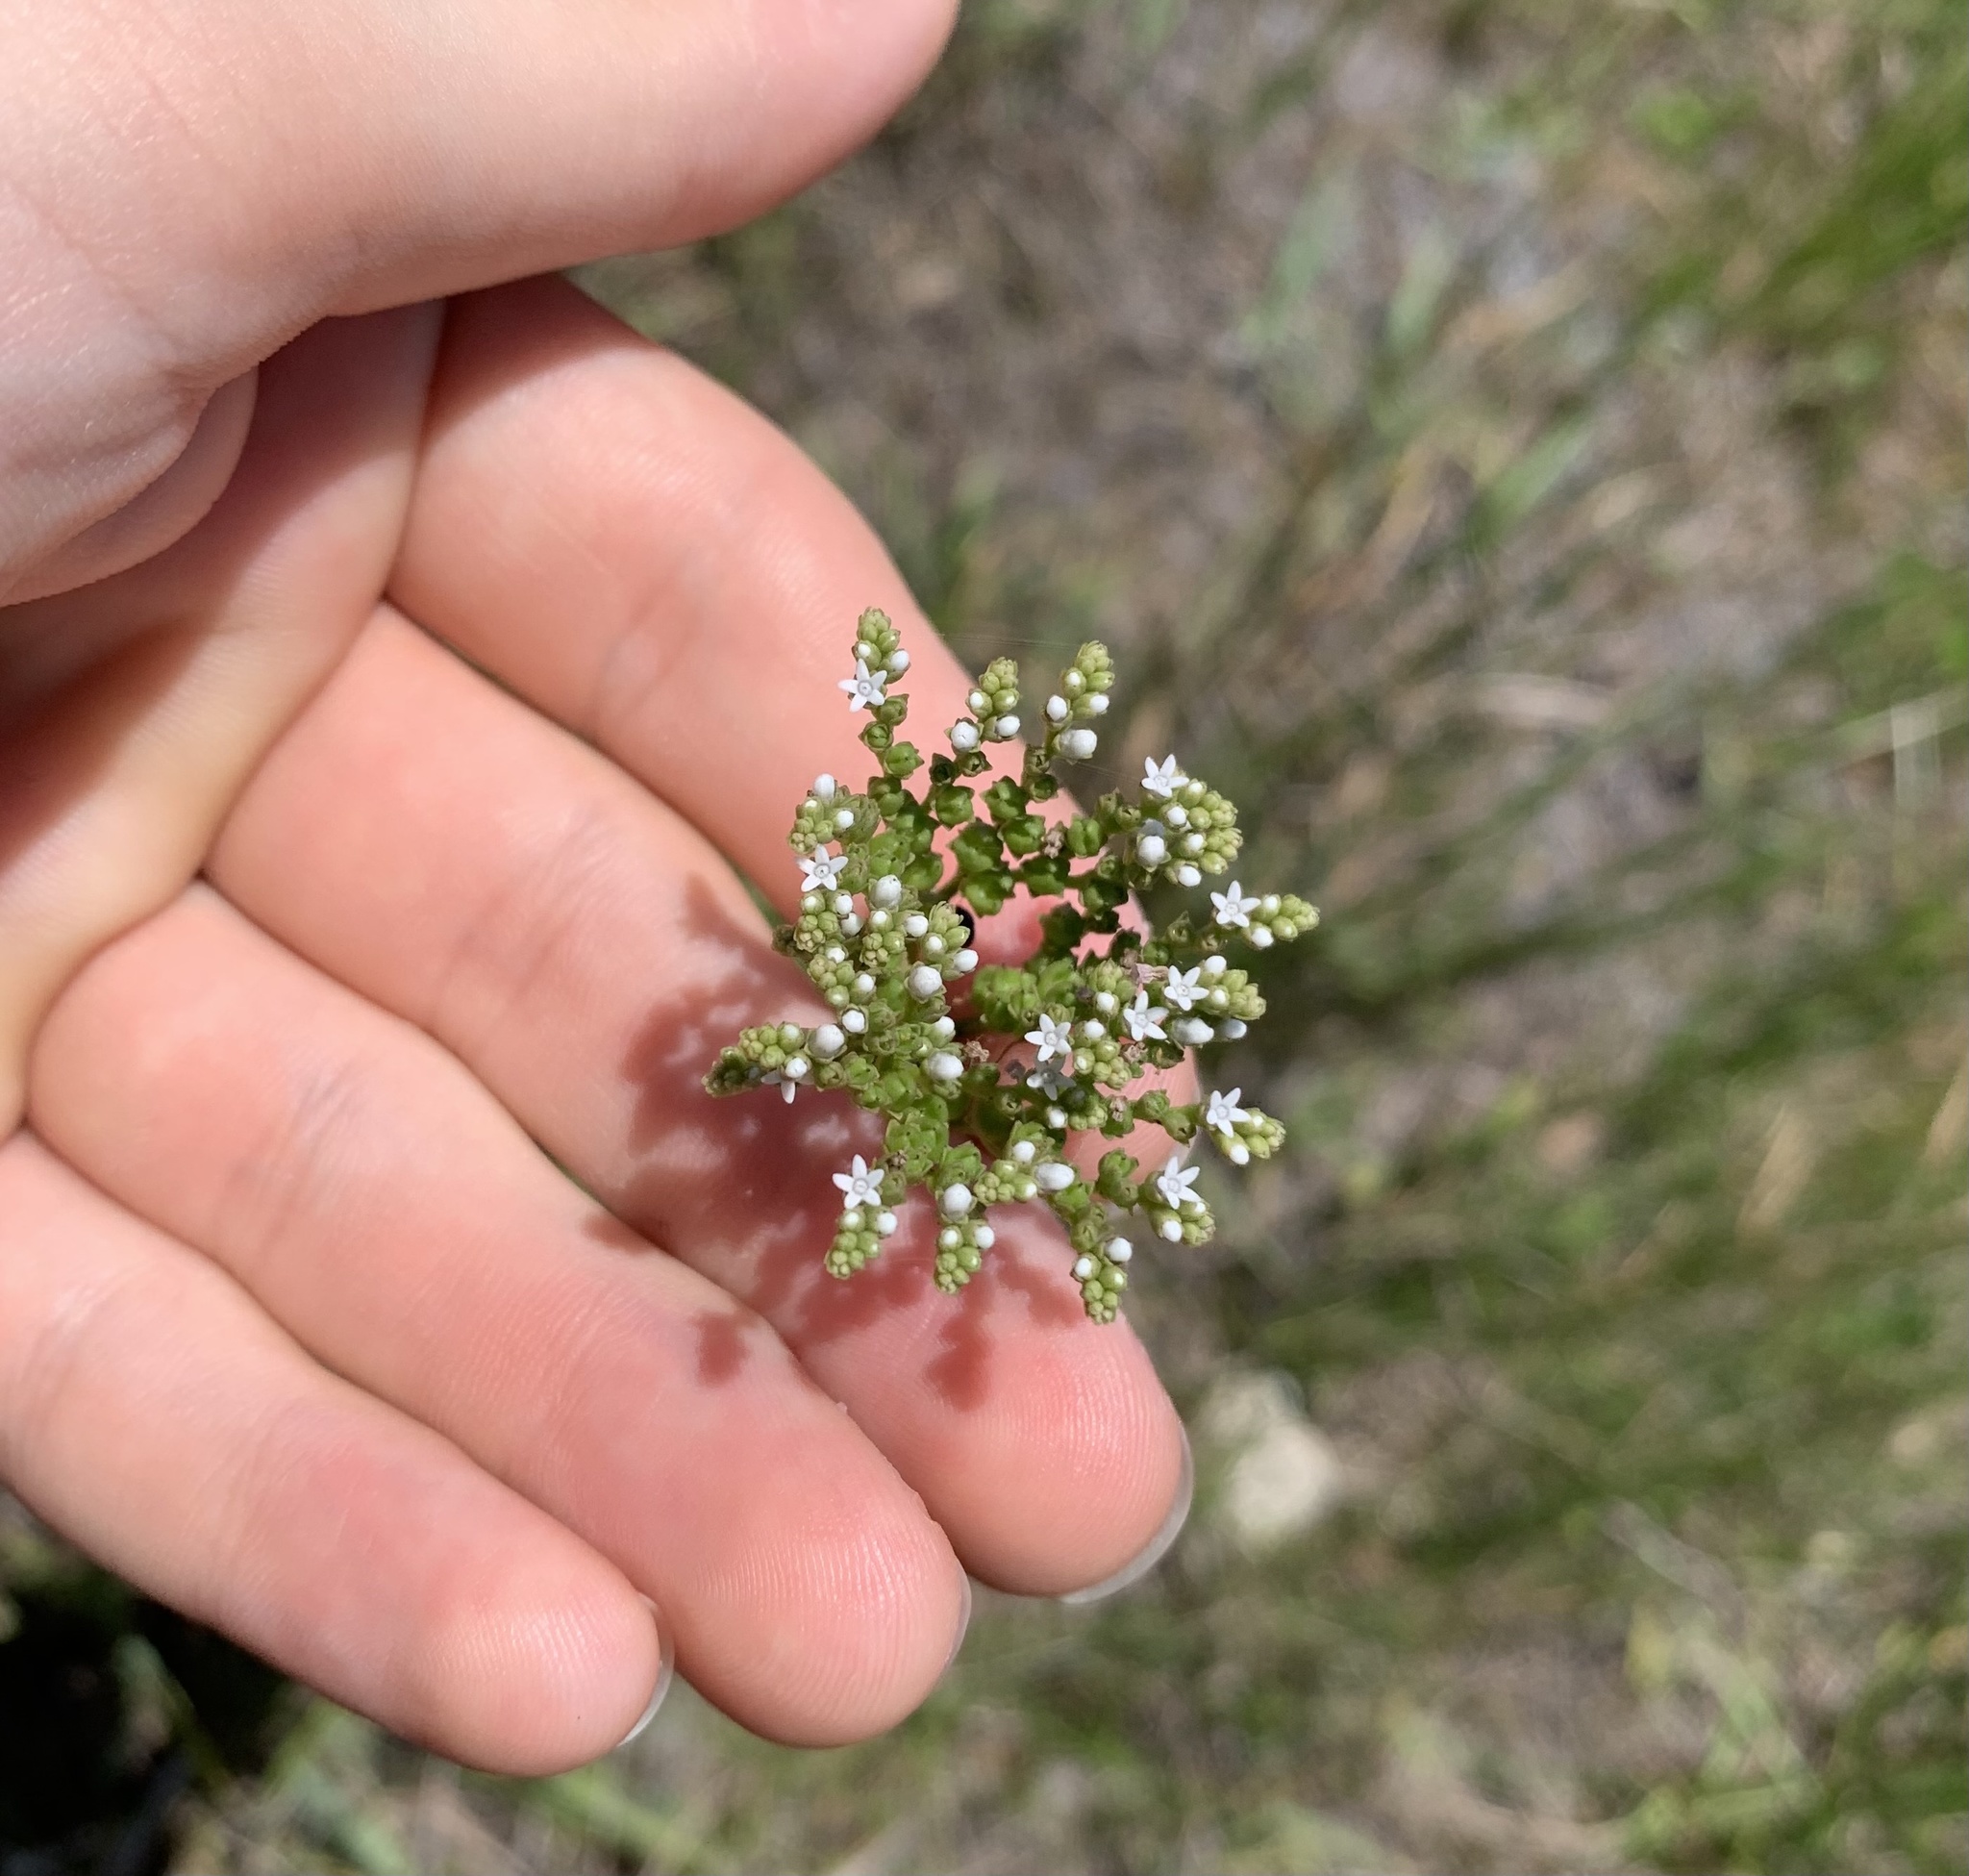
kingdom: Plantae
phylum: Tracheophyta
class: Magnoliopsida
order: Gentianales
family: Loganiaceae
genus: Mitreola
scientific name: Mitreola petiolata
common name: Lax hornpod
